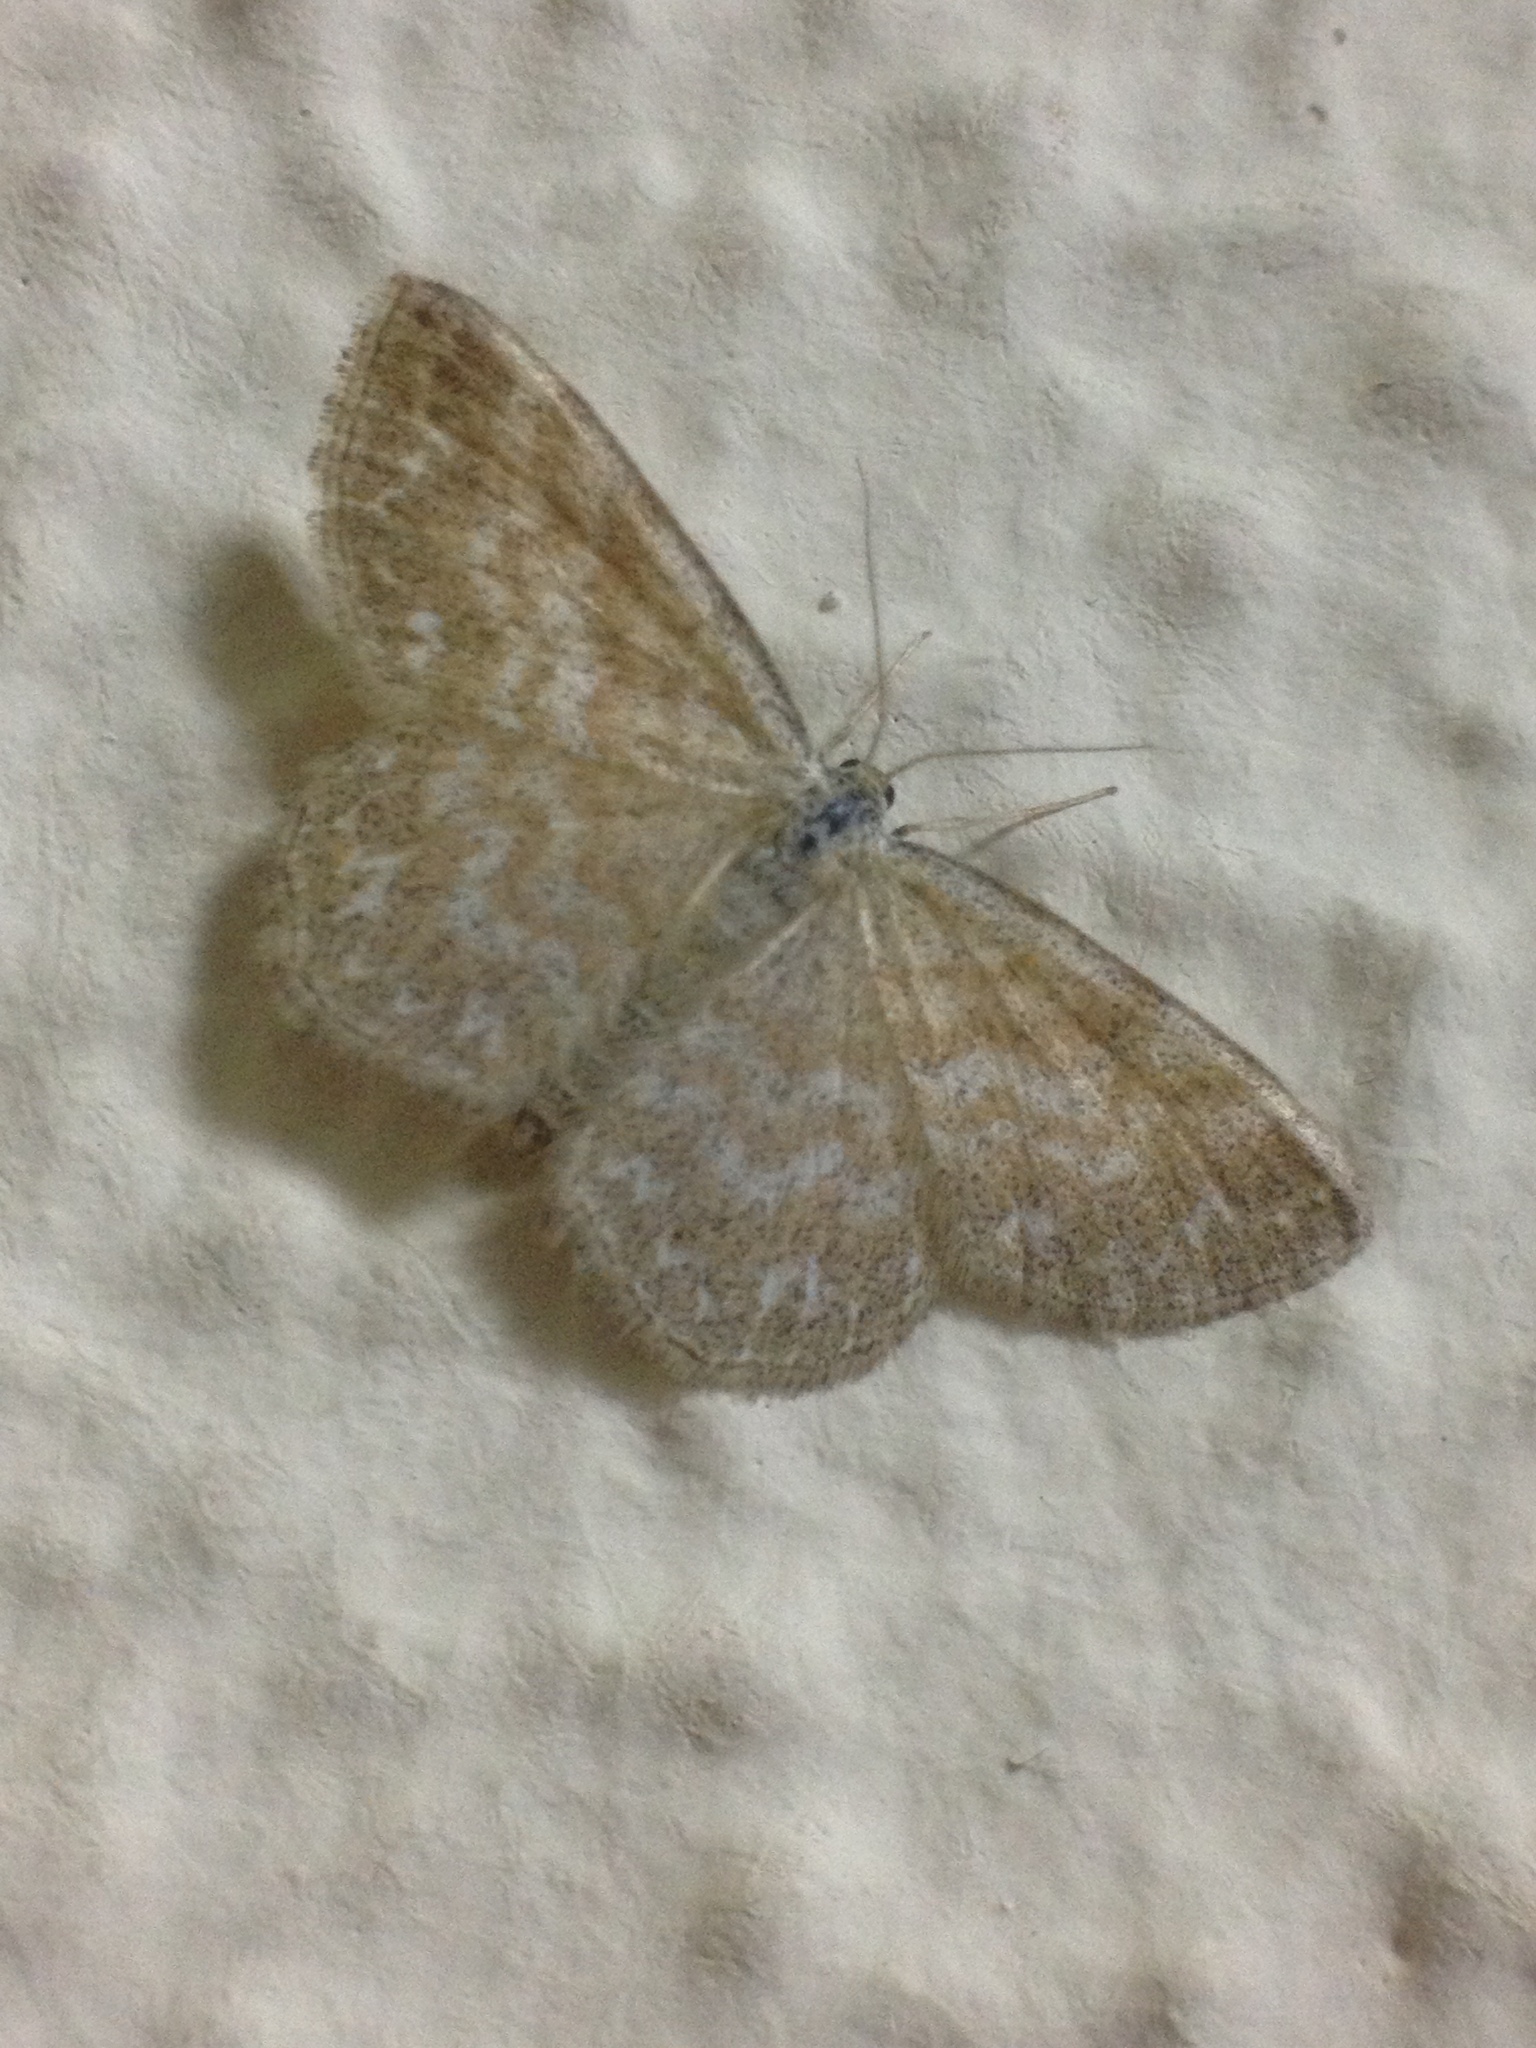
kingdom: Animalia
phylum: Arthropoda
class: Insecta
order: Lepidoptera
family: Geometridae
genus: Scopula
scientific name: Scopula immorata
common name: Lewes wave
